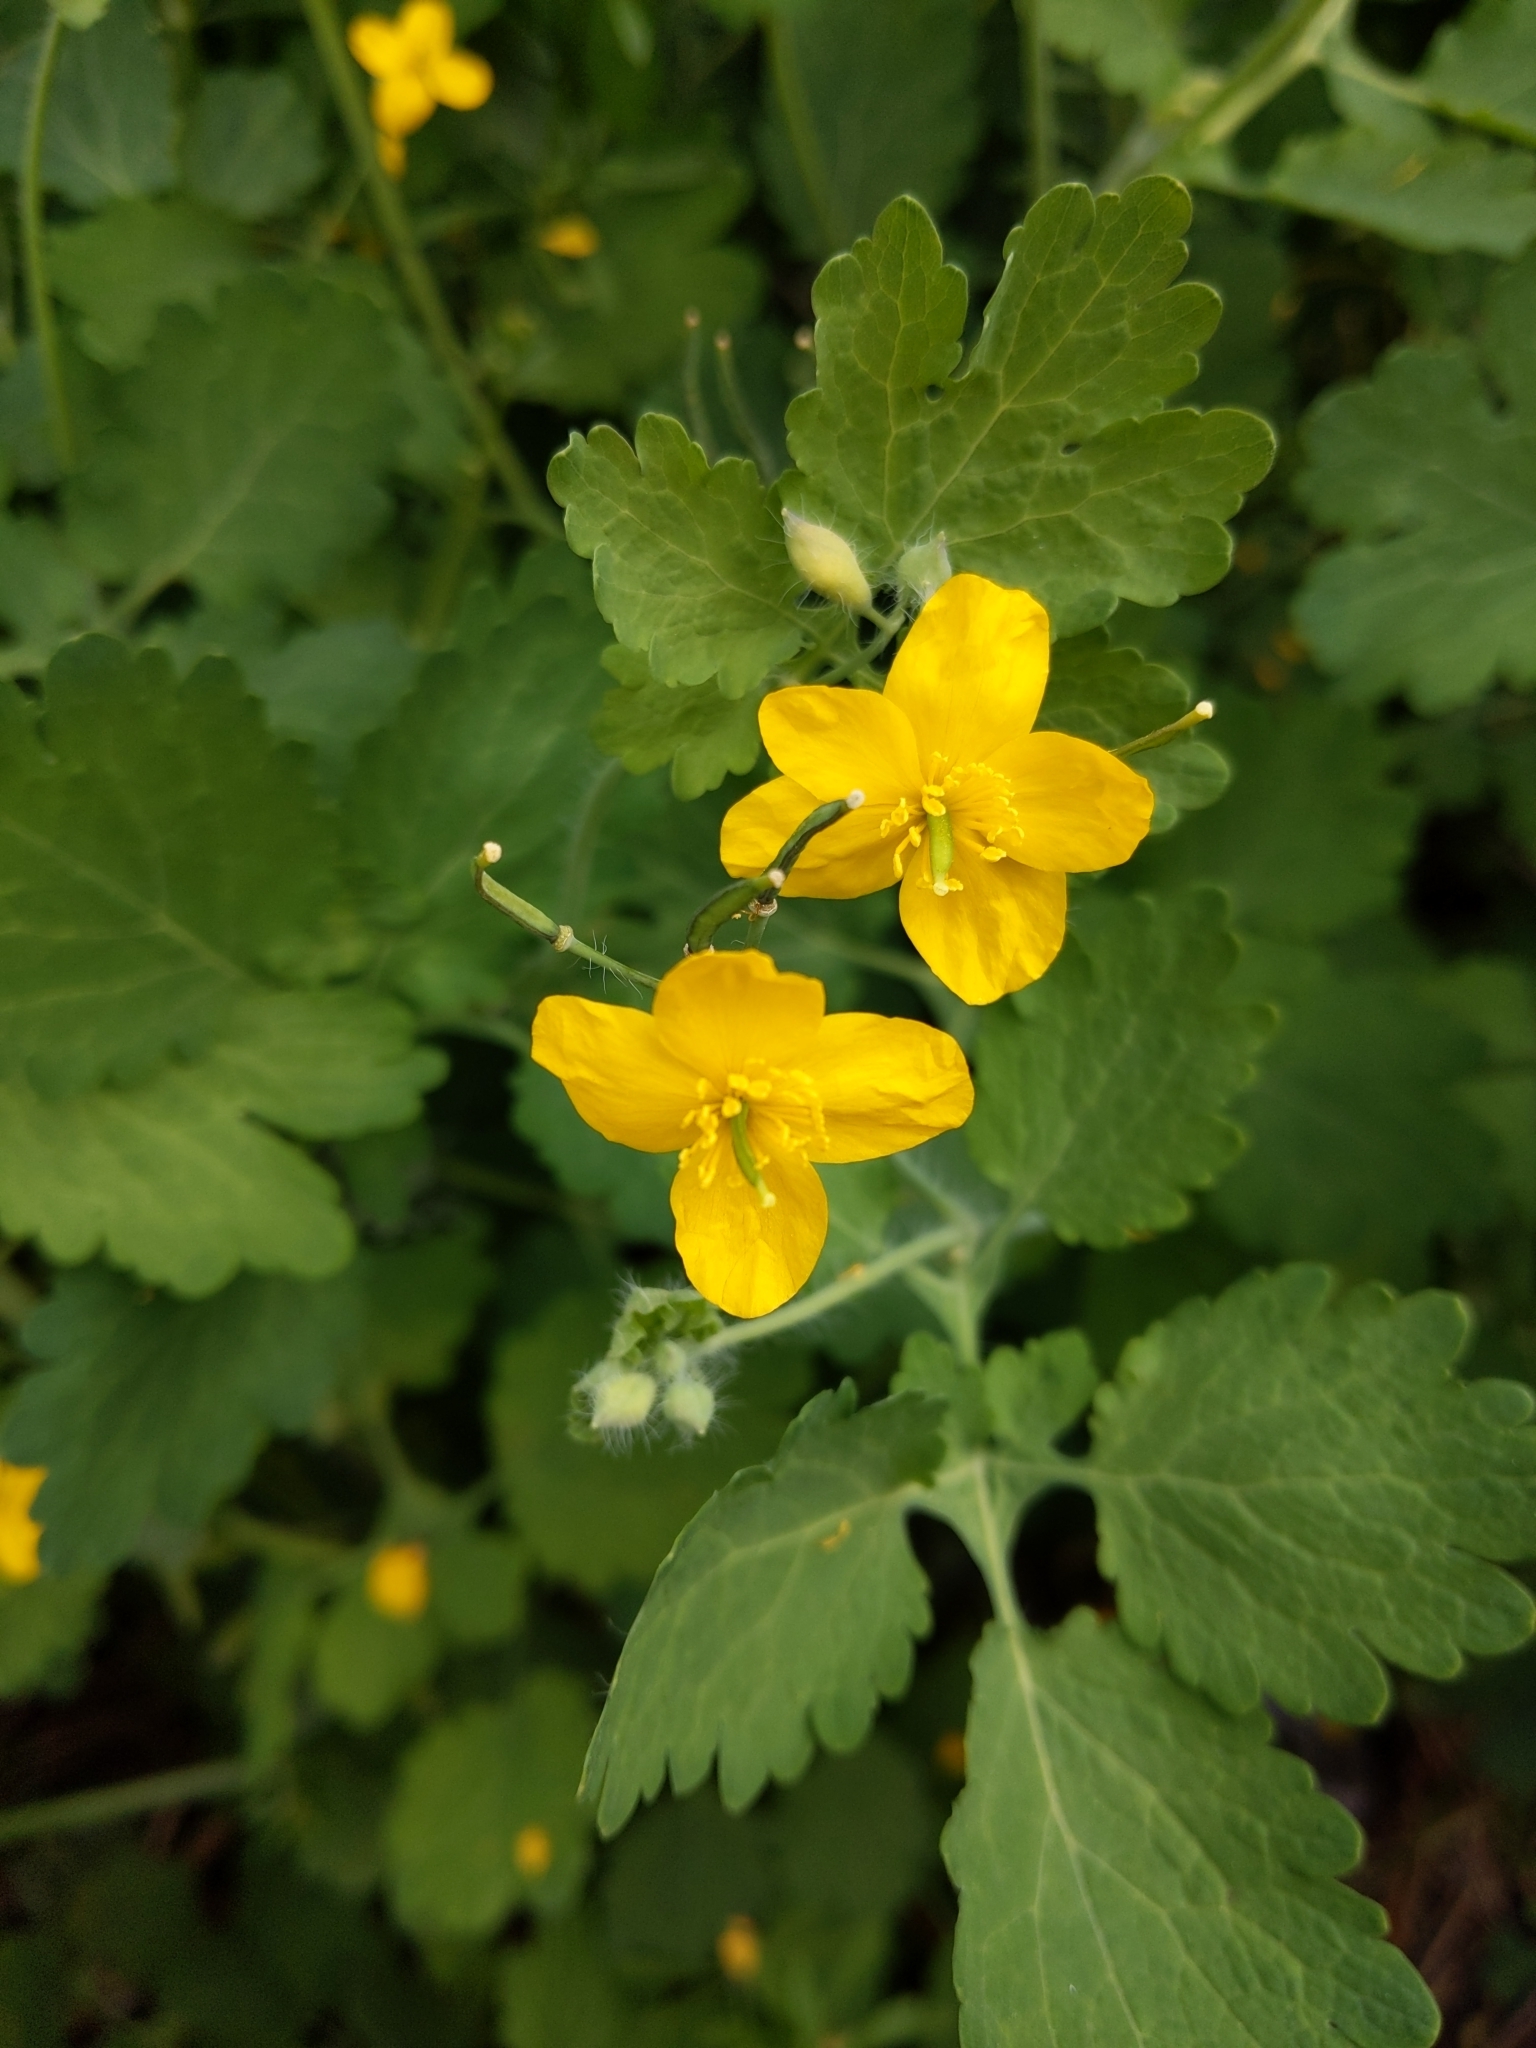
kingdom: Plantae
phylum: Tracheophyta
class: Magnoliopsida
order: Ranunculales
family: Papaveraceae
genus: Chelidonium
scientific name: Chelidonium majus
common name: Greater celandine
